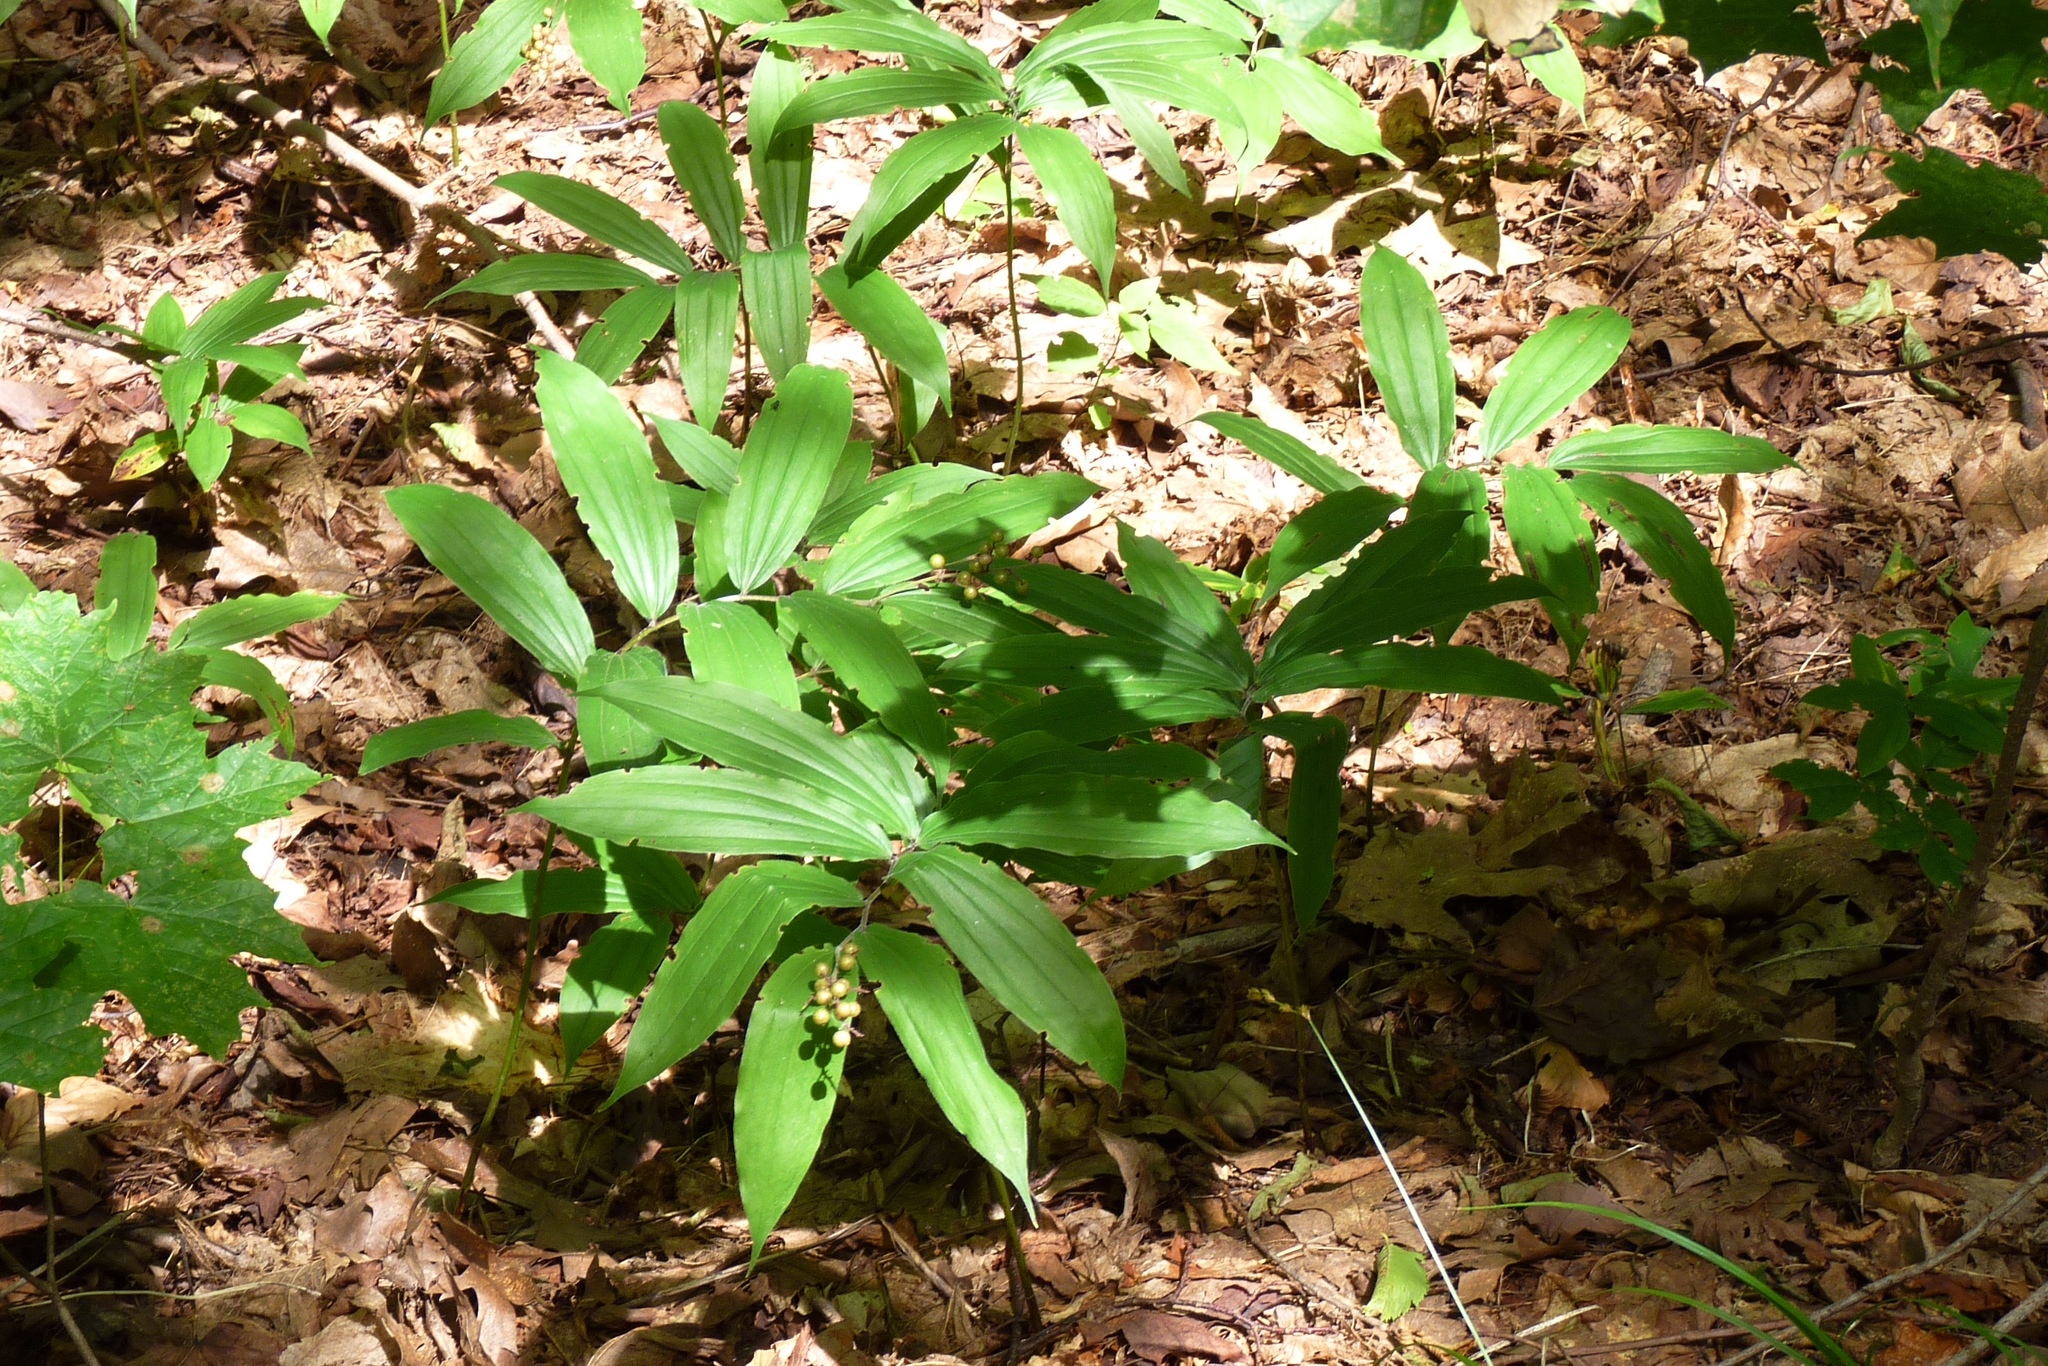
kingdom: Plantae
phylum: Tracheophyta
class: Liliopsida
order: Asparagales
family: Asparagaceae
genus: Maianthemum
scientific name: Maianthemum racemosum
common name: False spikenard
